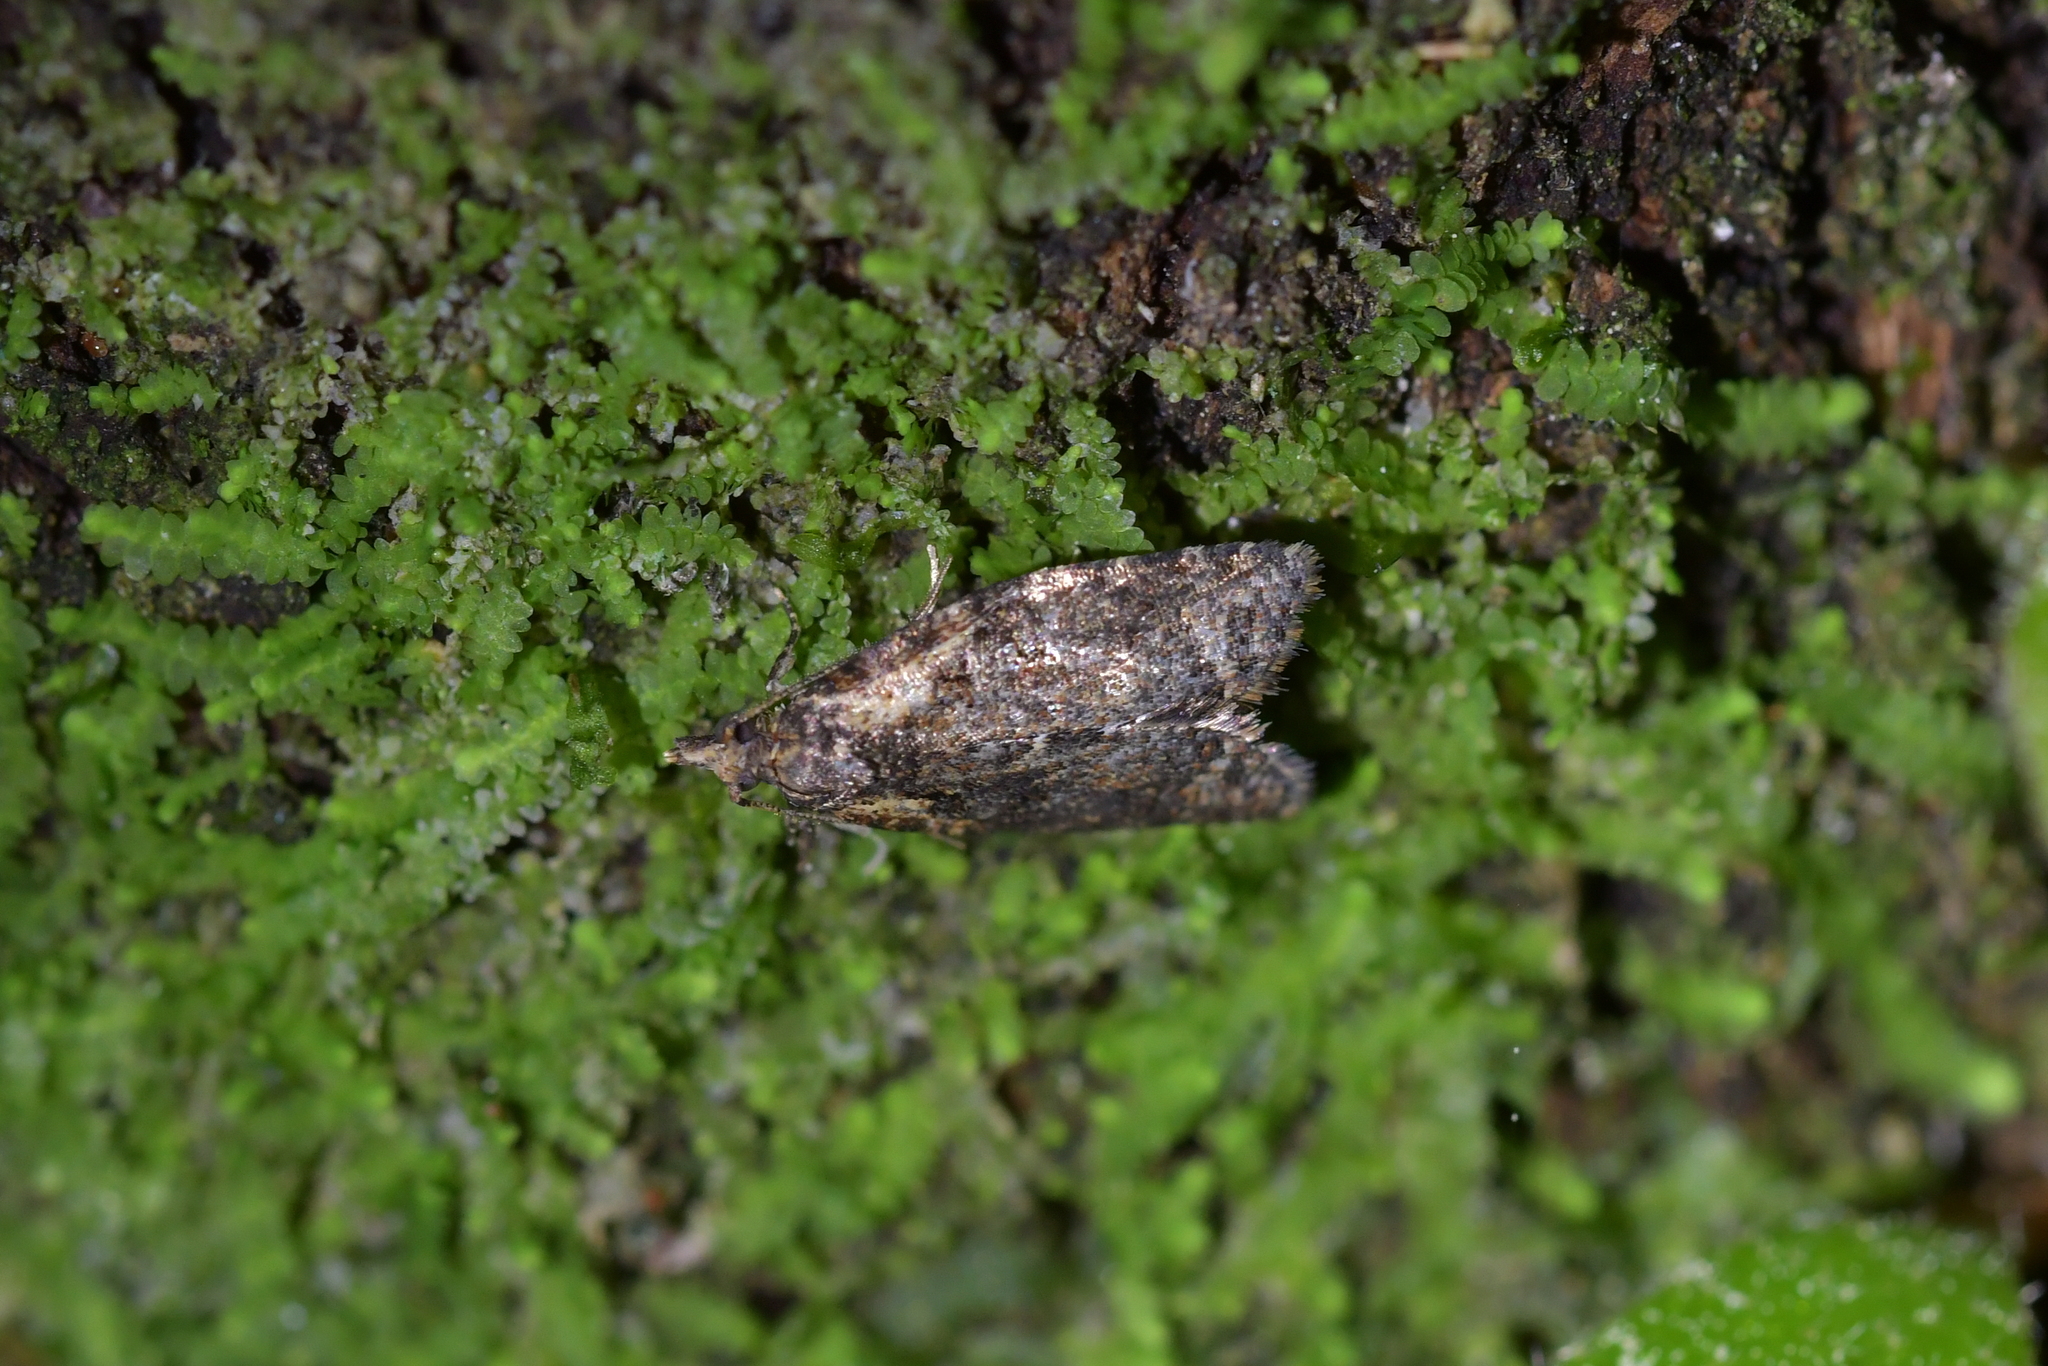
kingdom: Animalia
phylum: Arthropoda
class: Insecta
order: Lepidoptera
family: Tortricidae
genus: Capua
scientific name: Capua intractana
